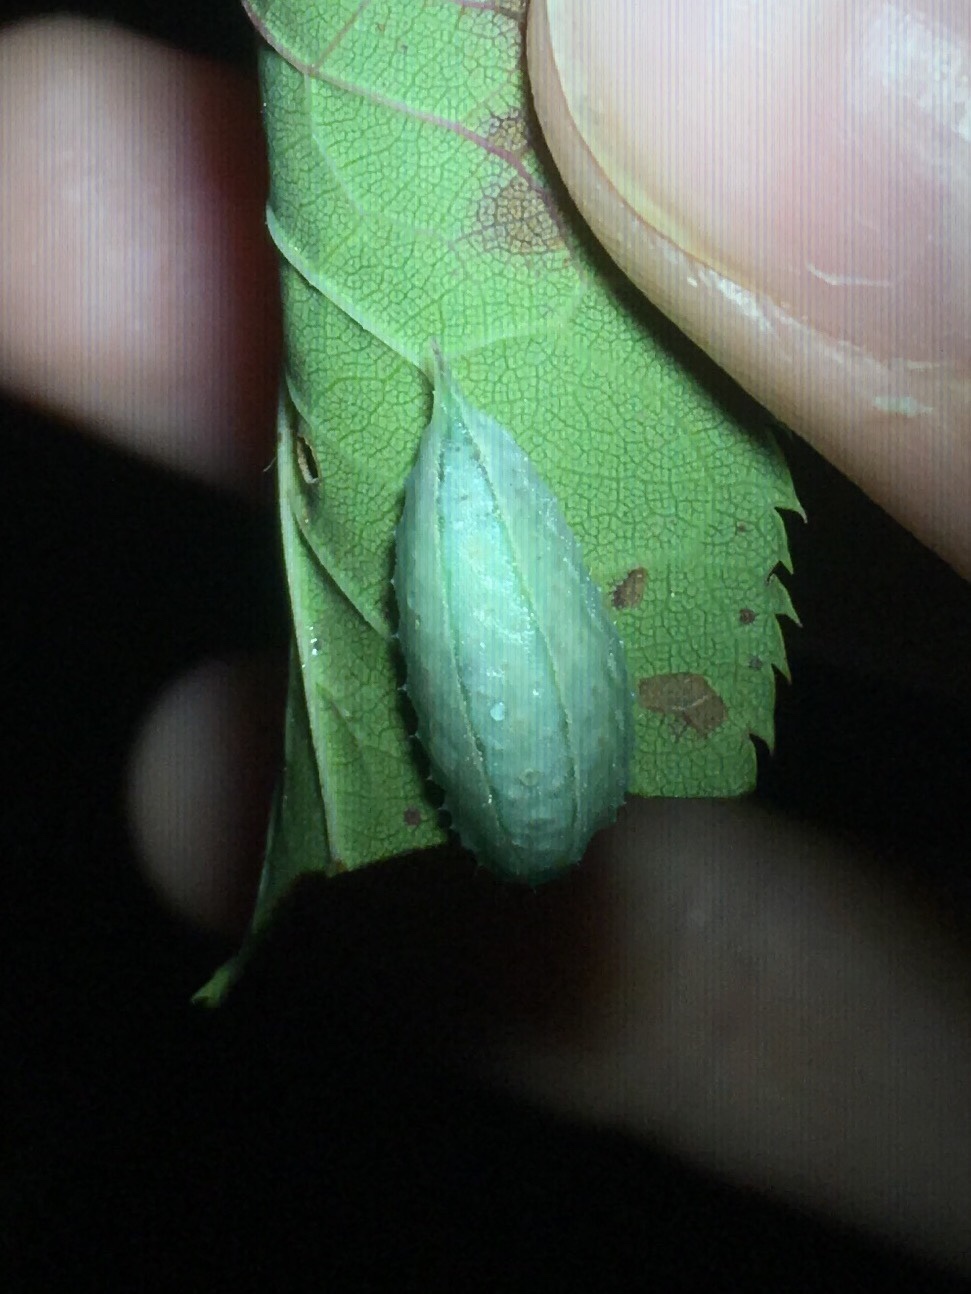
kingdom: Animalia
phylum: Arthropoda
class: Insecta
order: Lepidoptera
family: Limacodidae
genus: Packardia
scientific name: Packardia geminata
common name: Jeweled tailed slug moth
